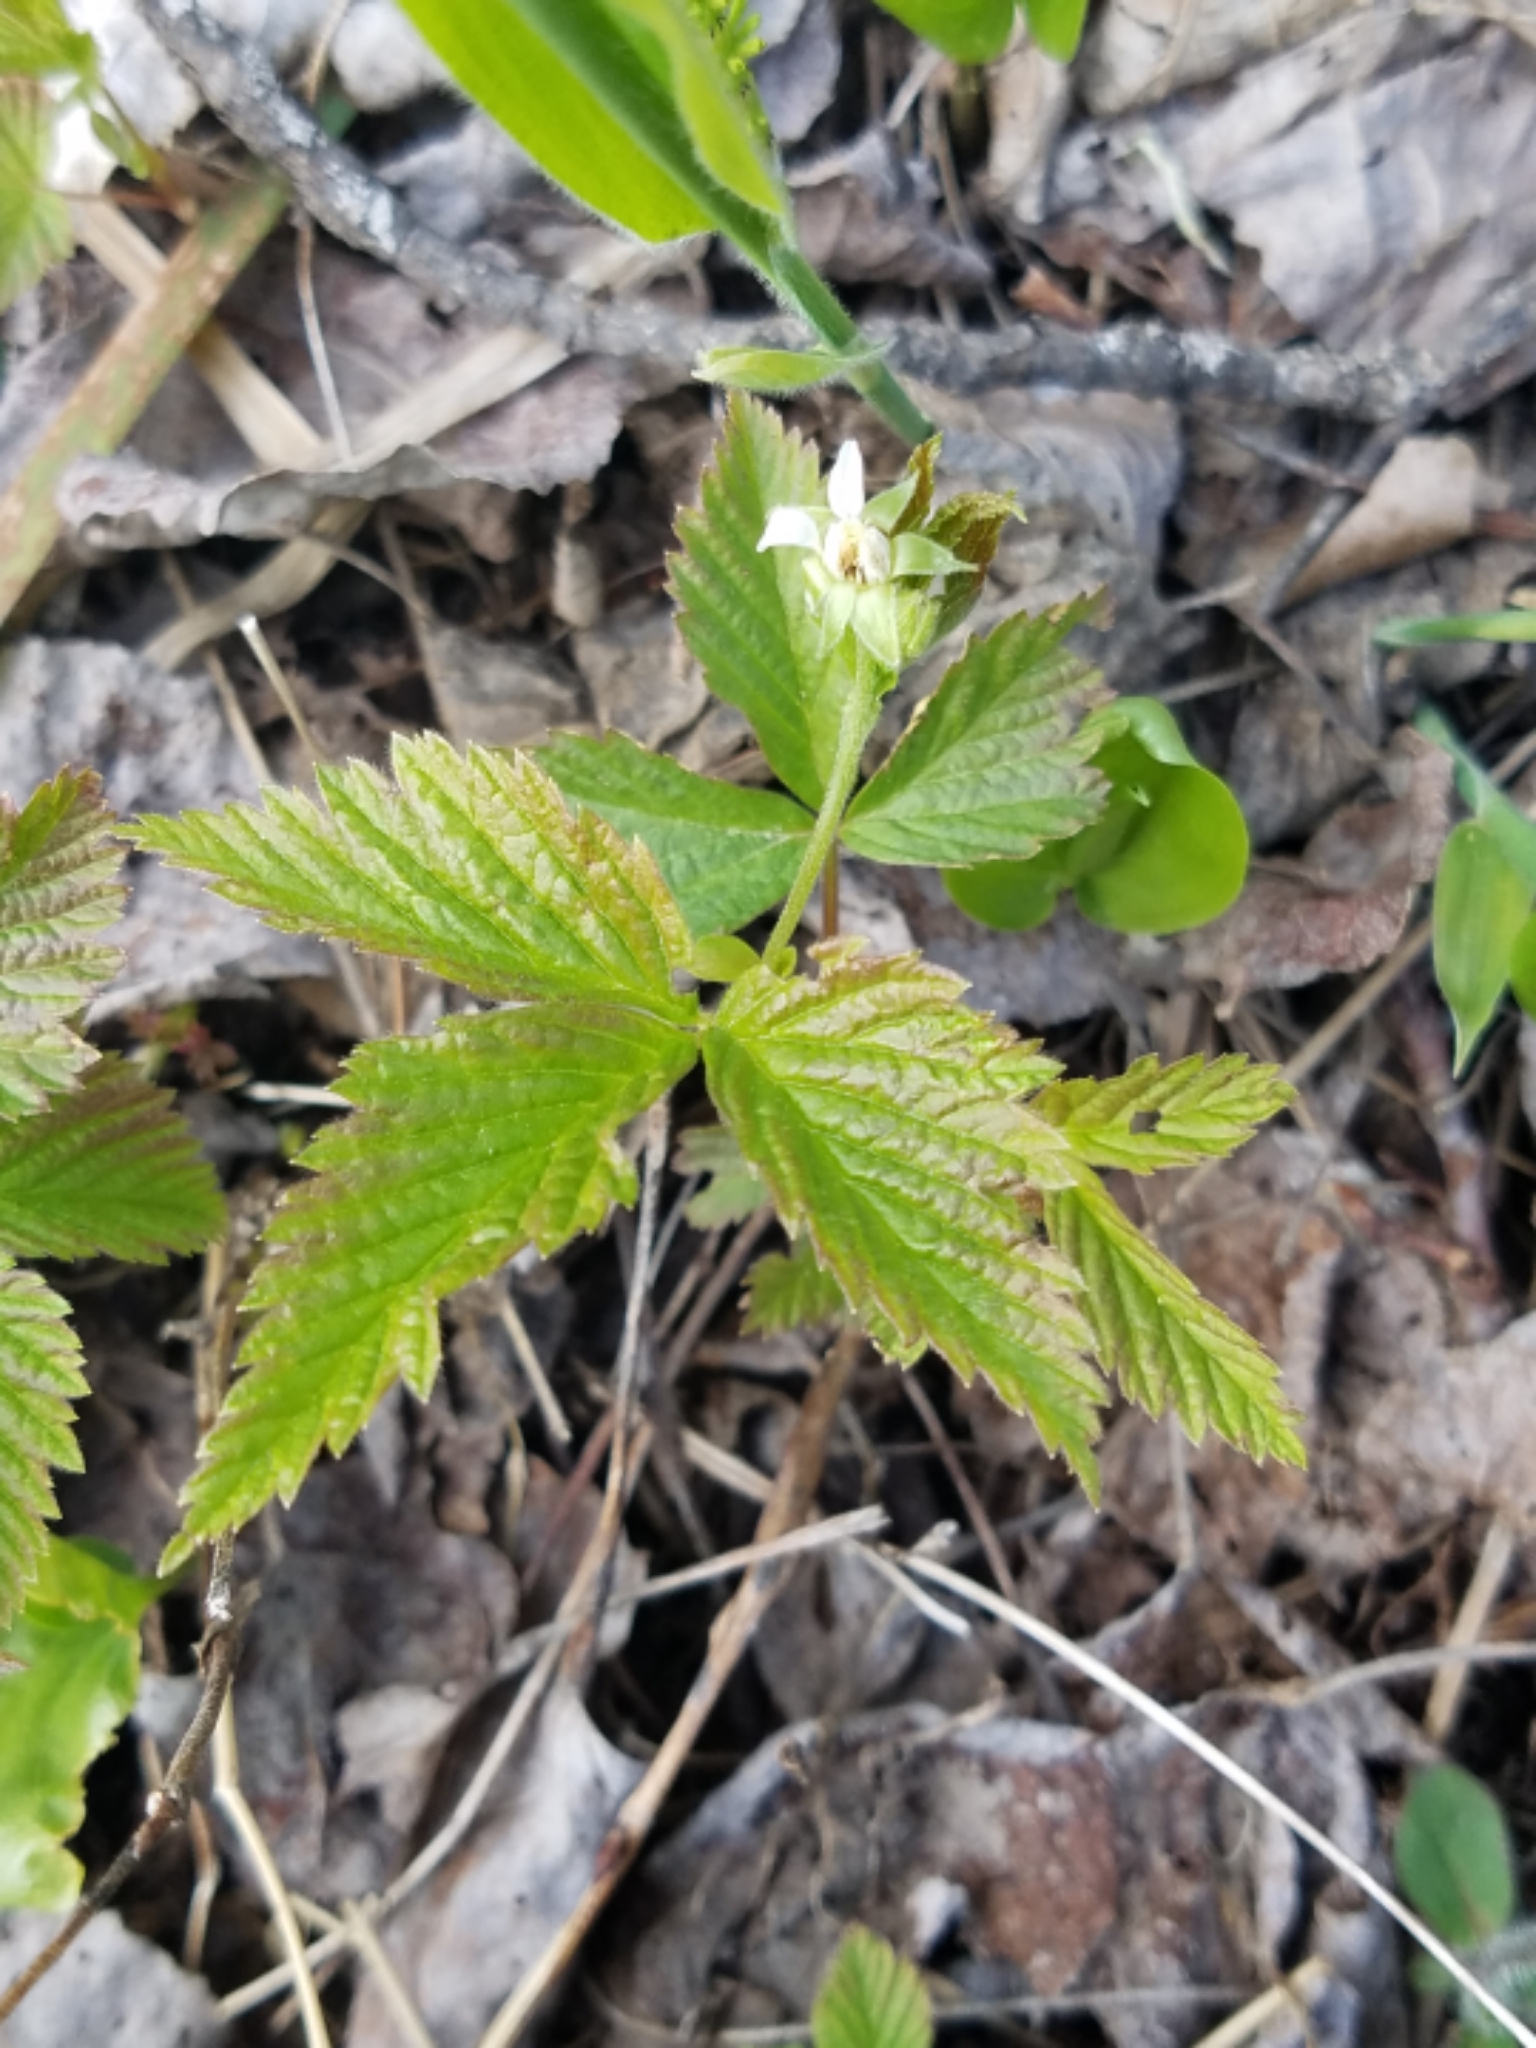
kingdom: Plantae
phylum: Tracheophyta
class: Magnoliopsida
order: Rosales
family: Rosaceae
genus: Rubus
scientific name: Rubus pubescens
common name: Dwarf raspberry
